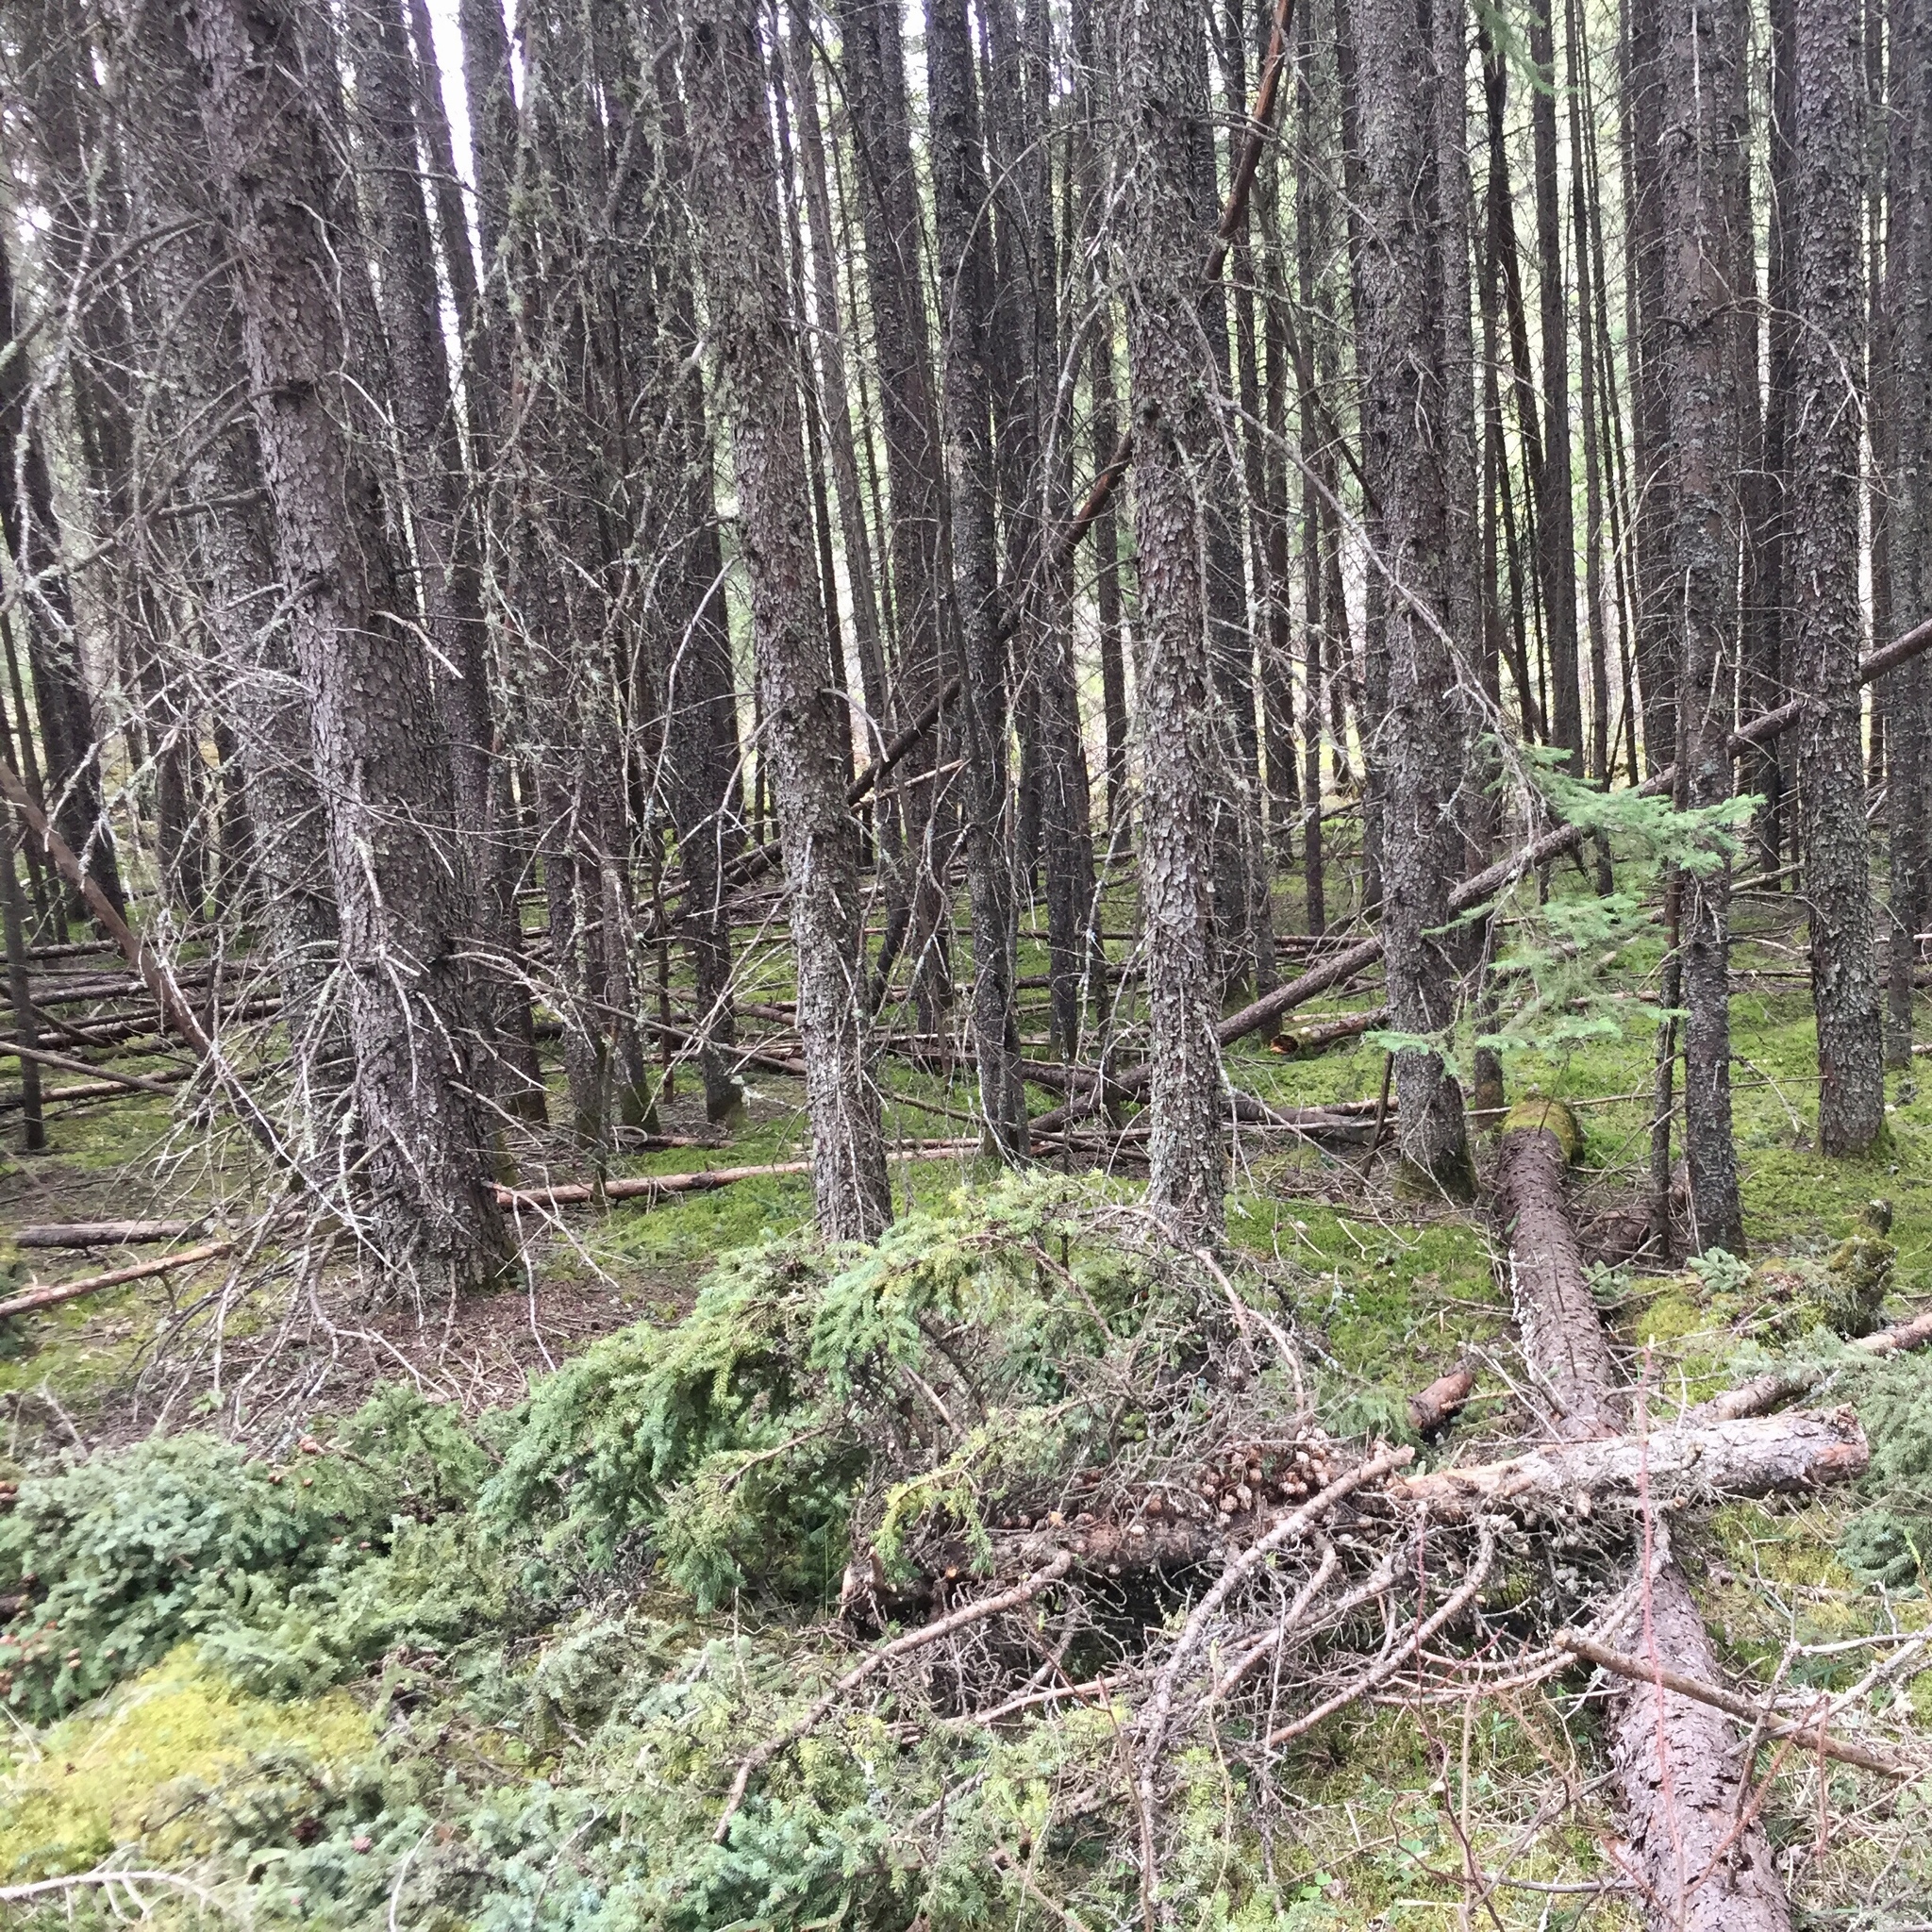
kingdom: Plantae
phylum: Tracheophyta
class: Pinopsida
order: Pinales
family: Pinaceae
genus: Picea
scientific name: Picea mariana
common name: Black spruce
